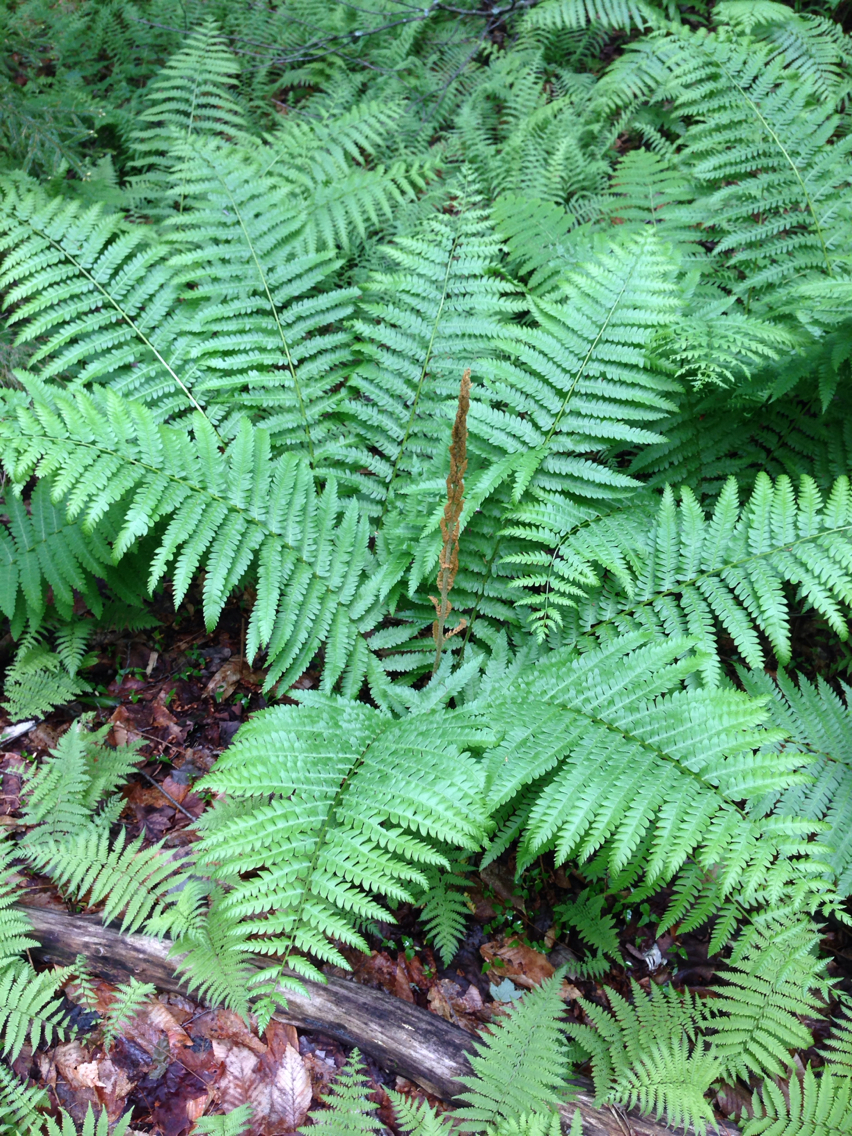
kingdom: Plantae
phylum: Tracheophyta
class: Polypodiopsida
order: Osmundales
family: Osmundaceae
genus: Osmundastrum
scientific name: Osmundastrum cinnamomeum
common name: Cinnamon fern
